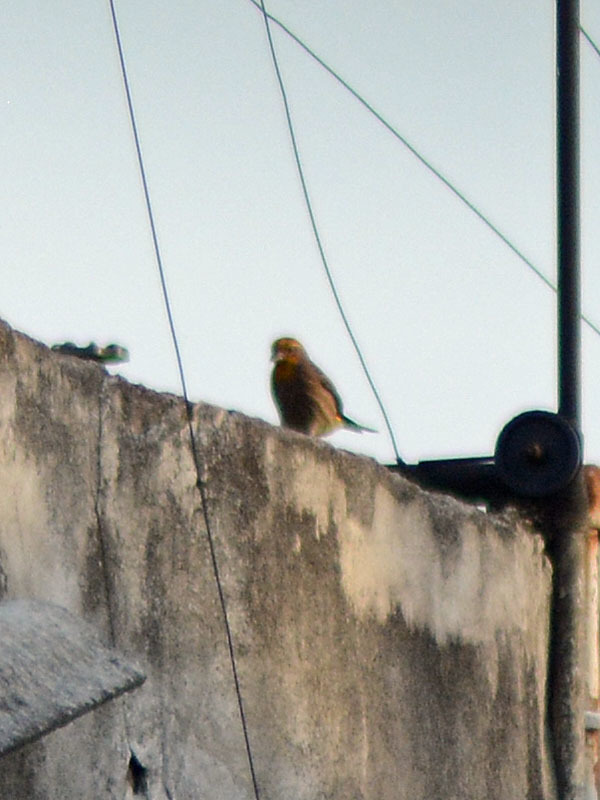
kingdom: Animalia
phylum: Chordata
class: Aves
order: Passeriformes
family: Fringillidae
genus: Haemorhous
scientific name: Haemorhous mexicanus
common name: House finch
